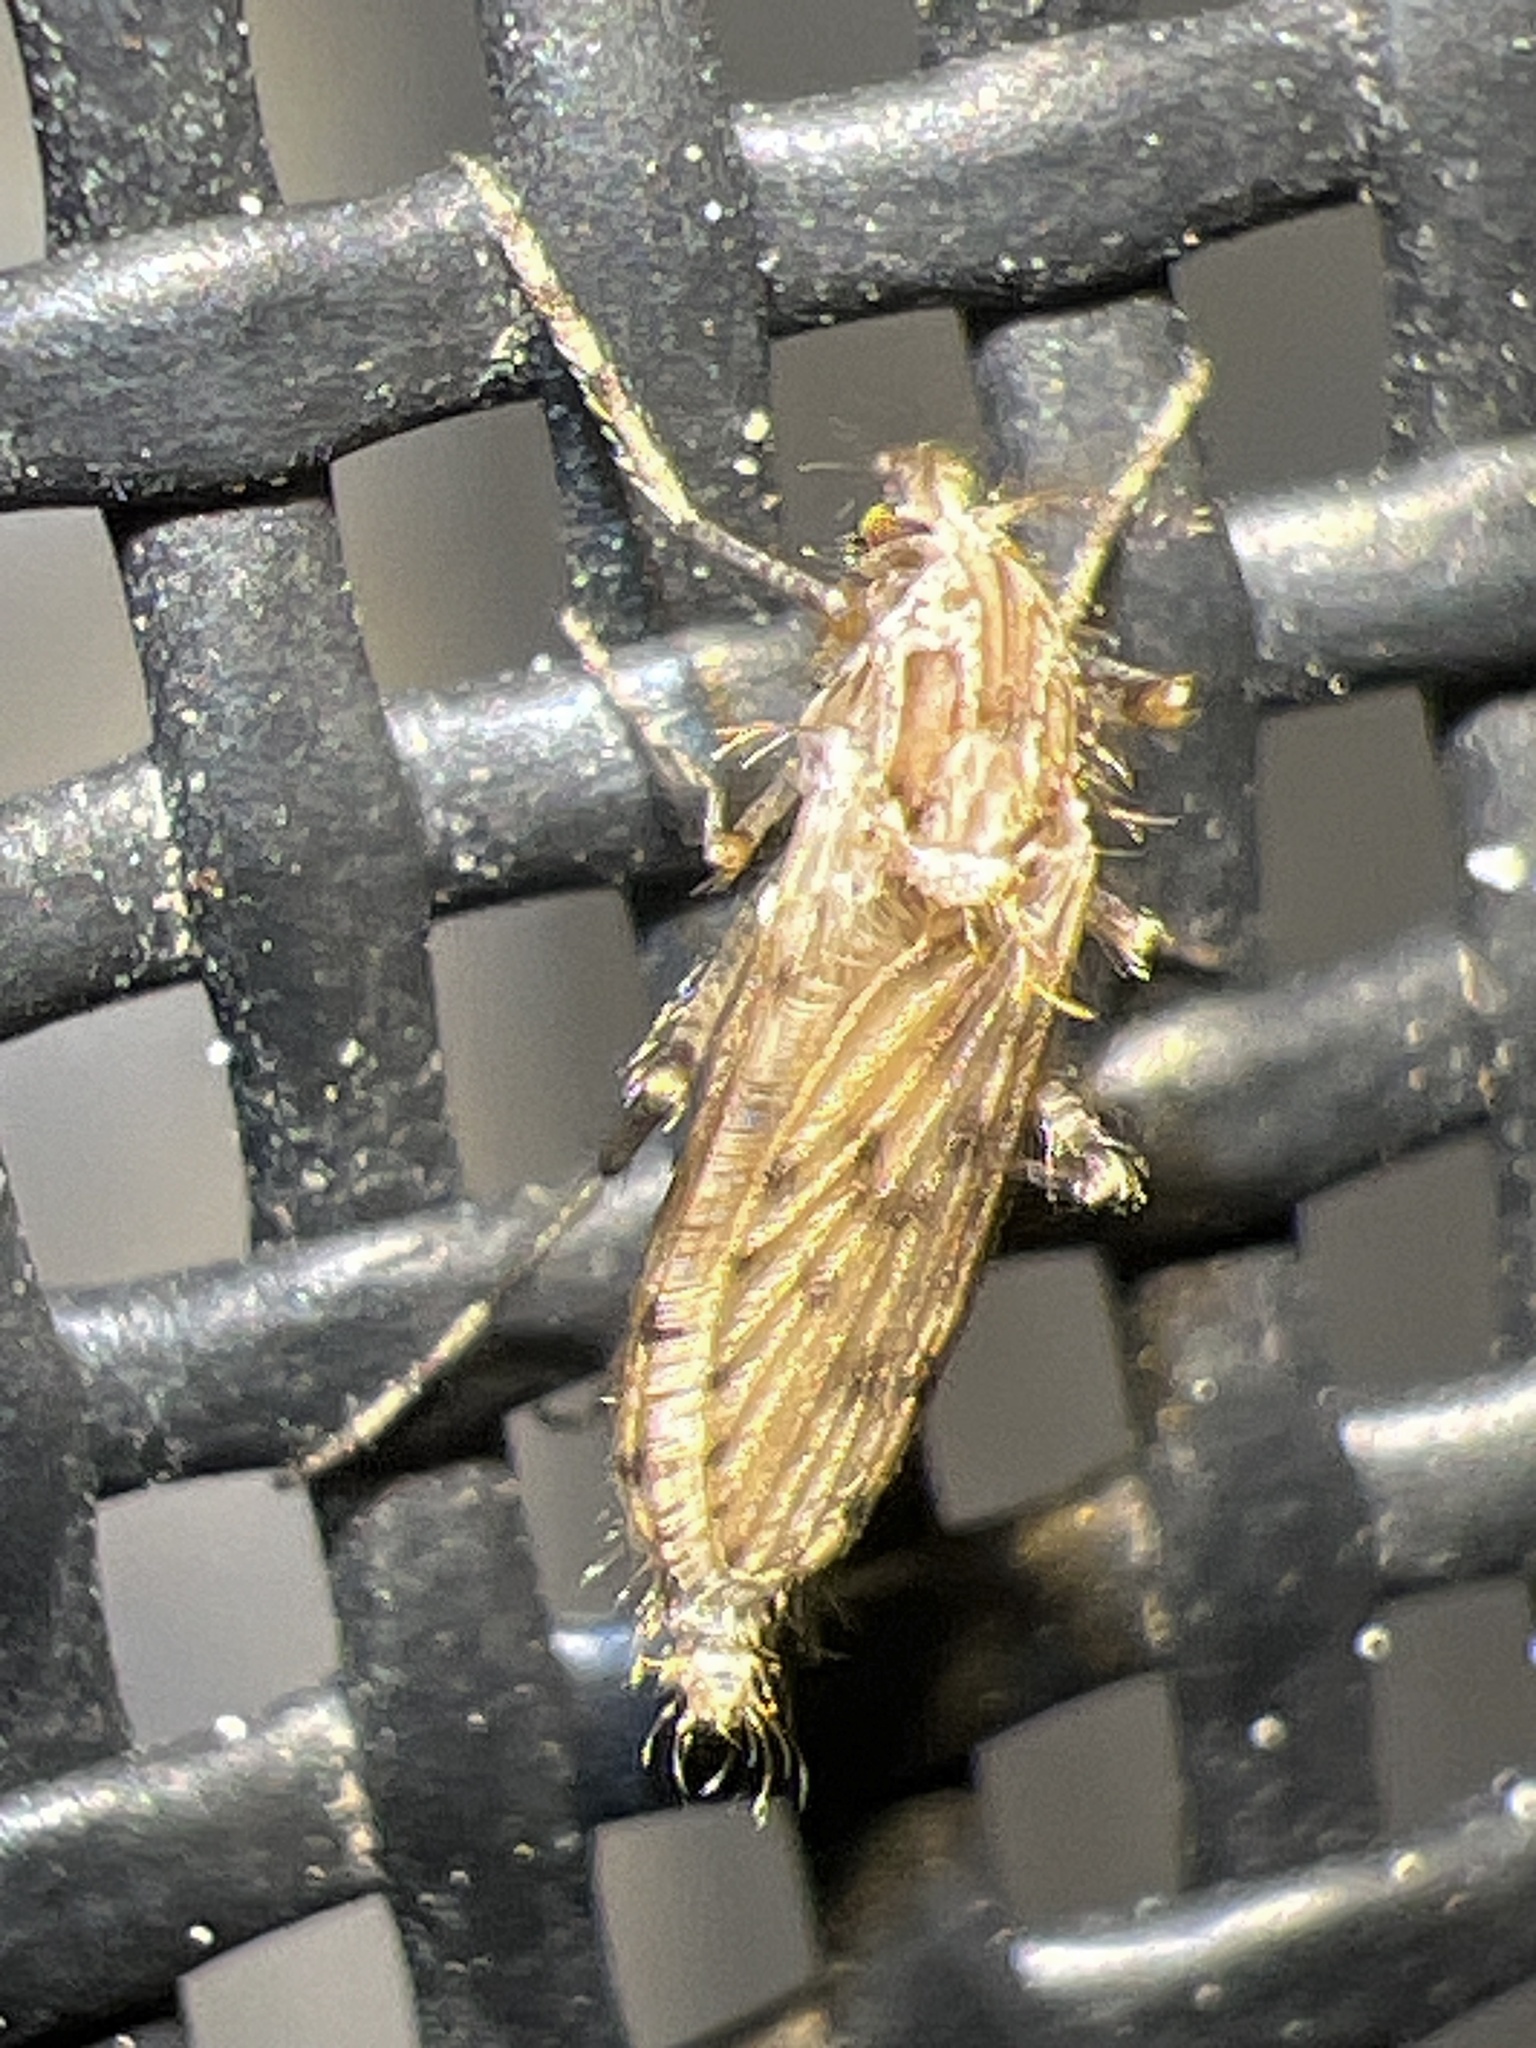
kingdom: Animalia
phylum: Arthropoda
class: Insecta
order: Diptera
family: Chaoboridae
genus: Chaoborus
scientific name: Chaoborus punctipennis
